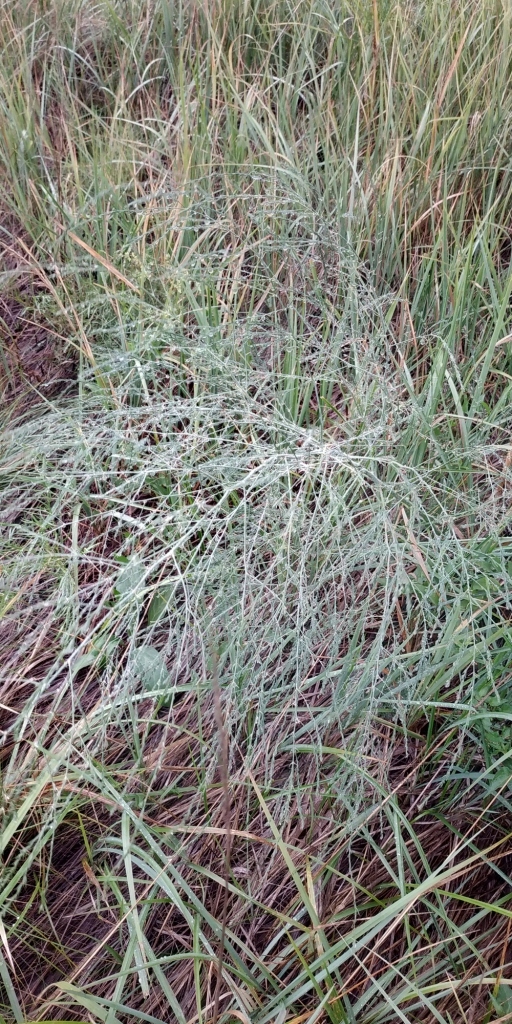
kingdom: Plantae
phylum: Tracheophyta
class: Liliopsida
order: Asparagales
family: Asparagaceae
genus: Asparagus
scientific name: Asparagus officinalis
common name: Garden asparagus
